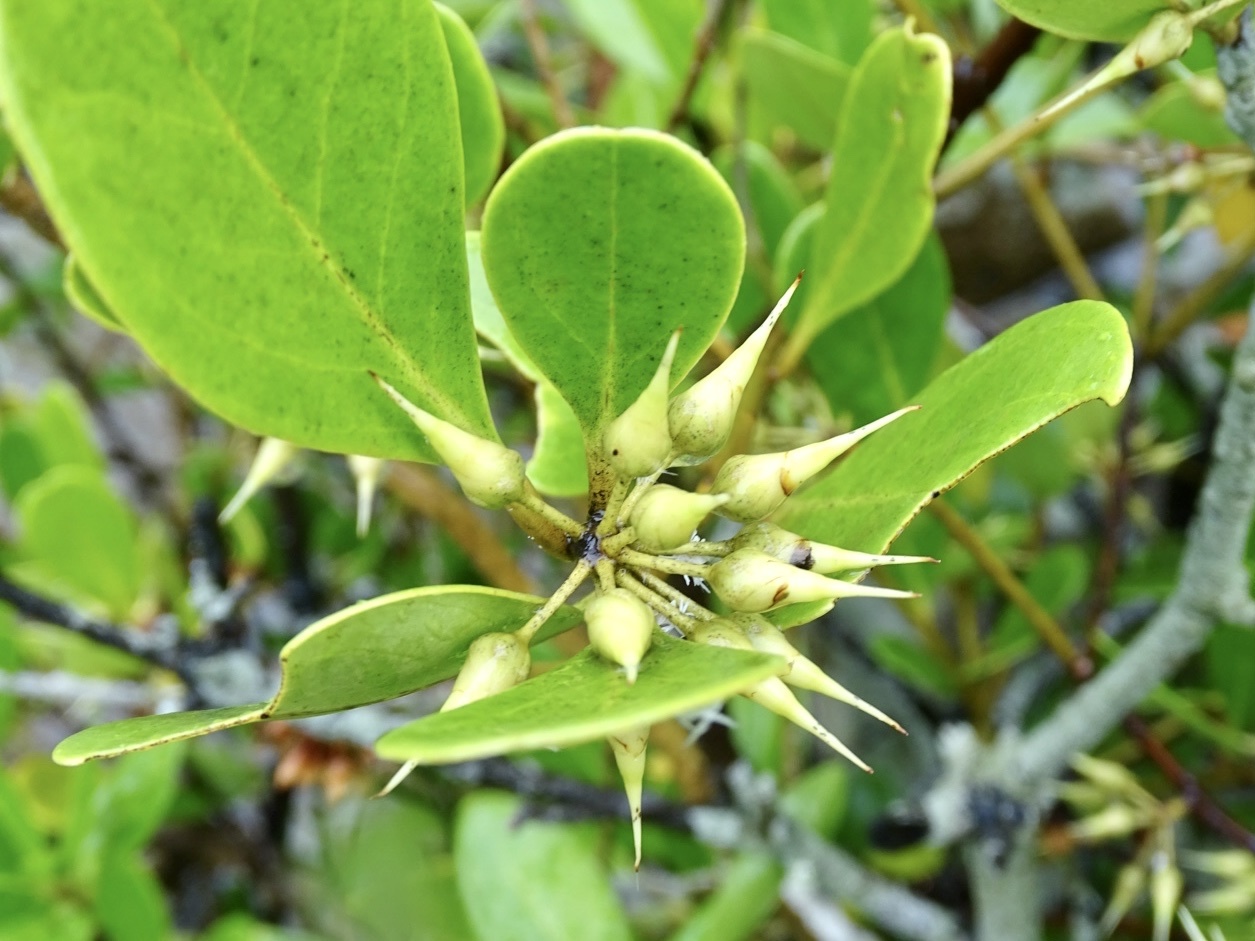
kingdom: Plantae
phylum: Tracheophyta
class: Magnoliopsida
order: Ericales
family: Primulaceae
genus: Aegiceras
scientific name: Aegiceras corniculatum
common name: River mangrove
